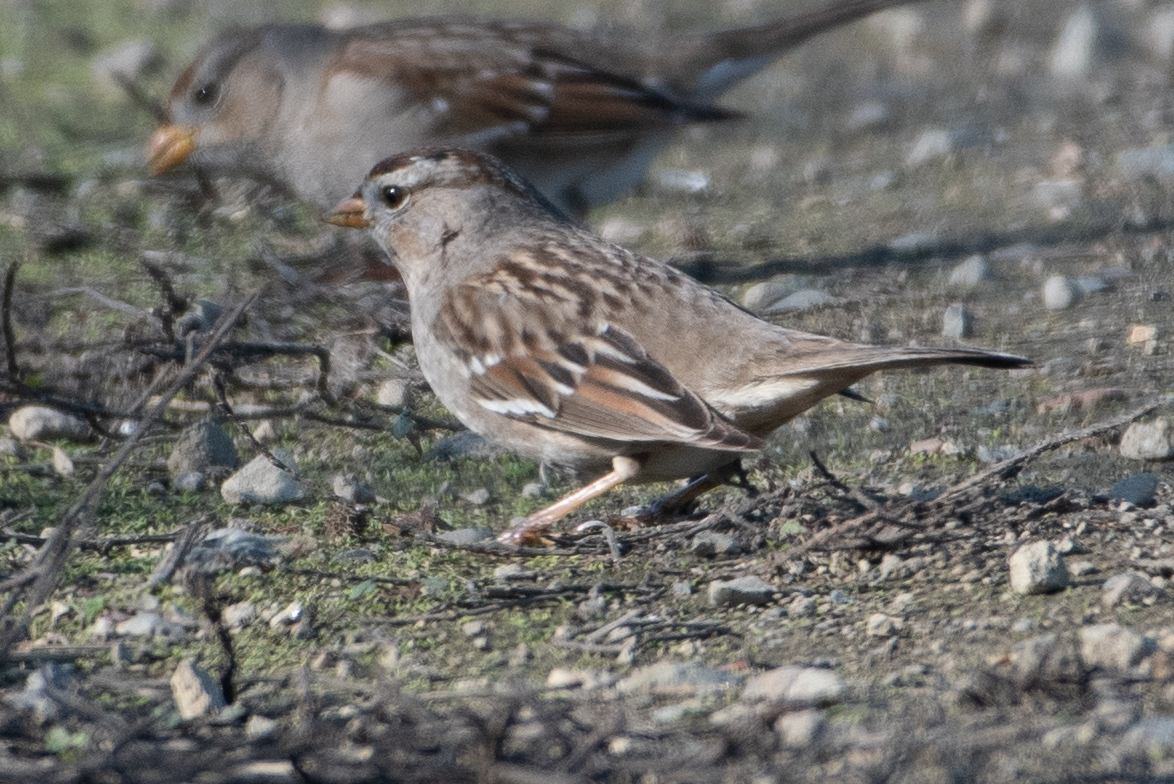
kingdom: Animalia
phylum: Chordata
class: Aves
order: Passeriformes
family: Passerellidae
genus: Zonotrichia
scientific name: Zonotrichia leucophrys
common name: White-crowned sparrow
